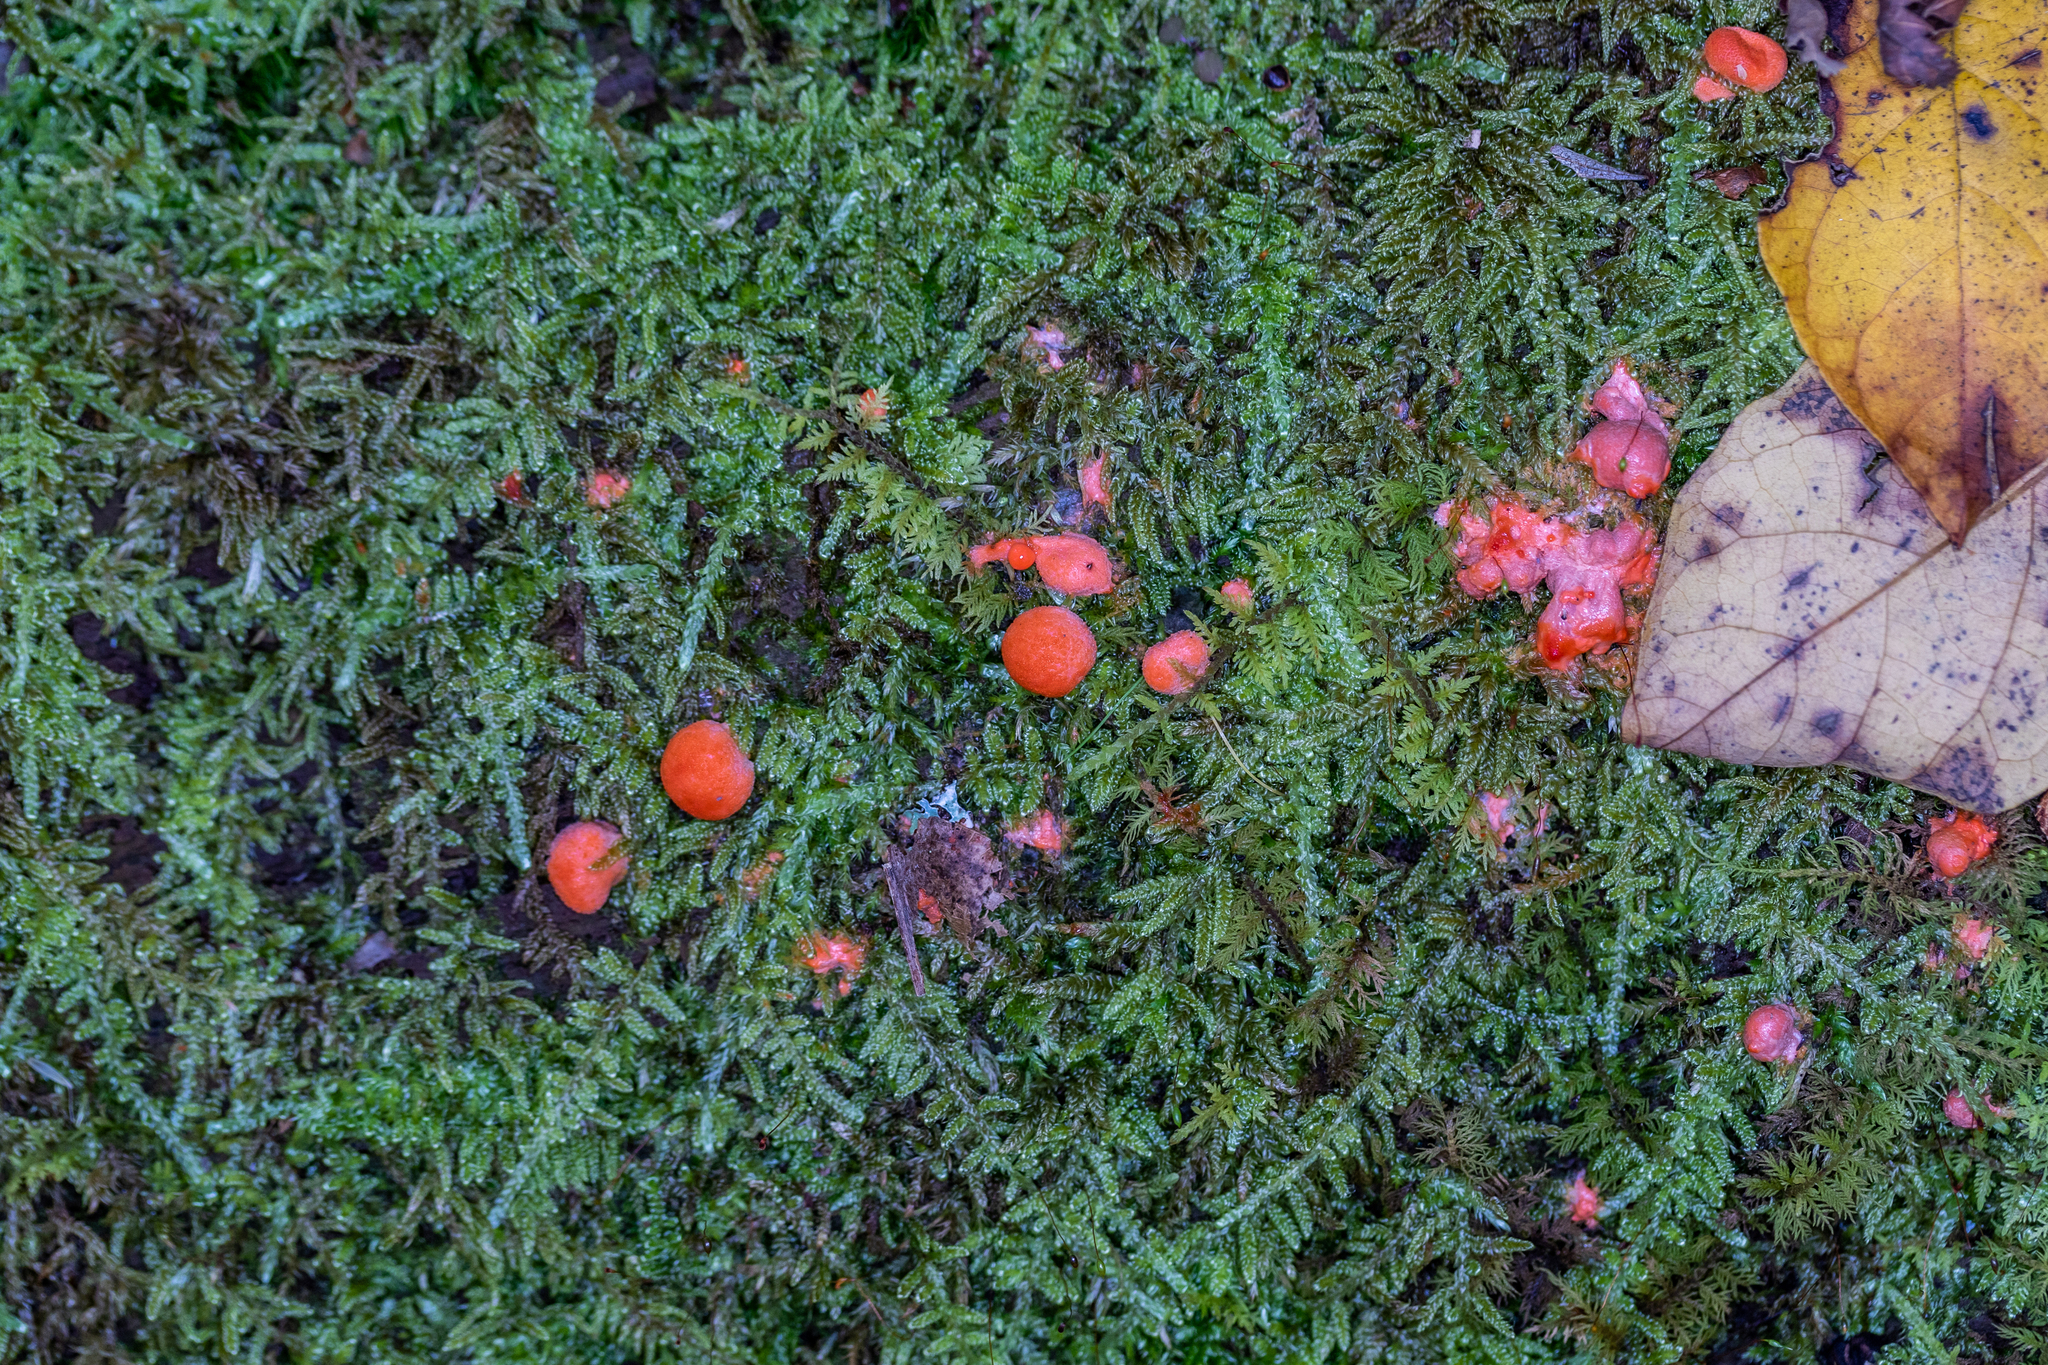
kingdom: Protozoa
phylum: Mycetozoa
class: Myxomycetes
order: Cribrariales
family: Tubiferaceae
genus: Lycogala
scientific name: Lycogala epidendrum
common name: Wolf's milk
